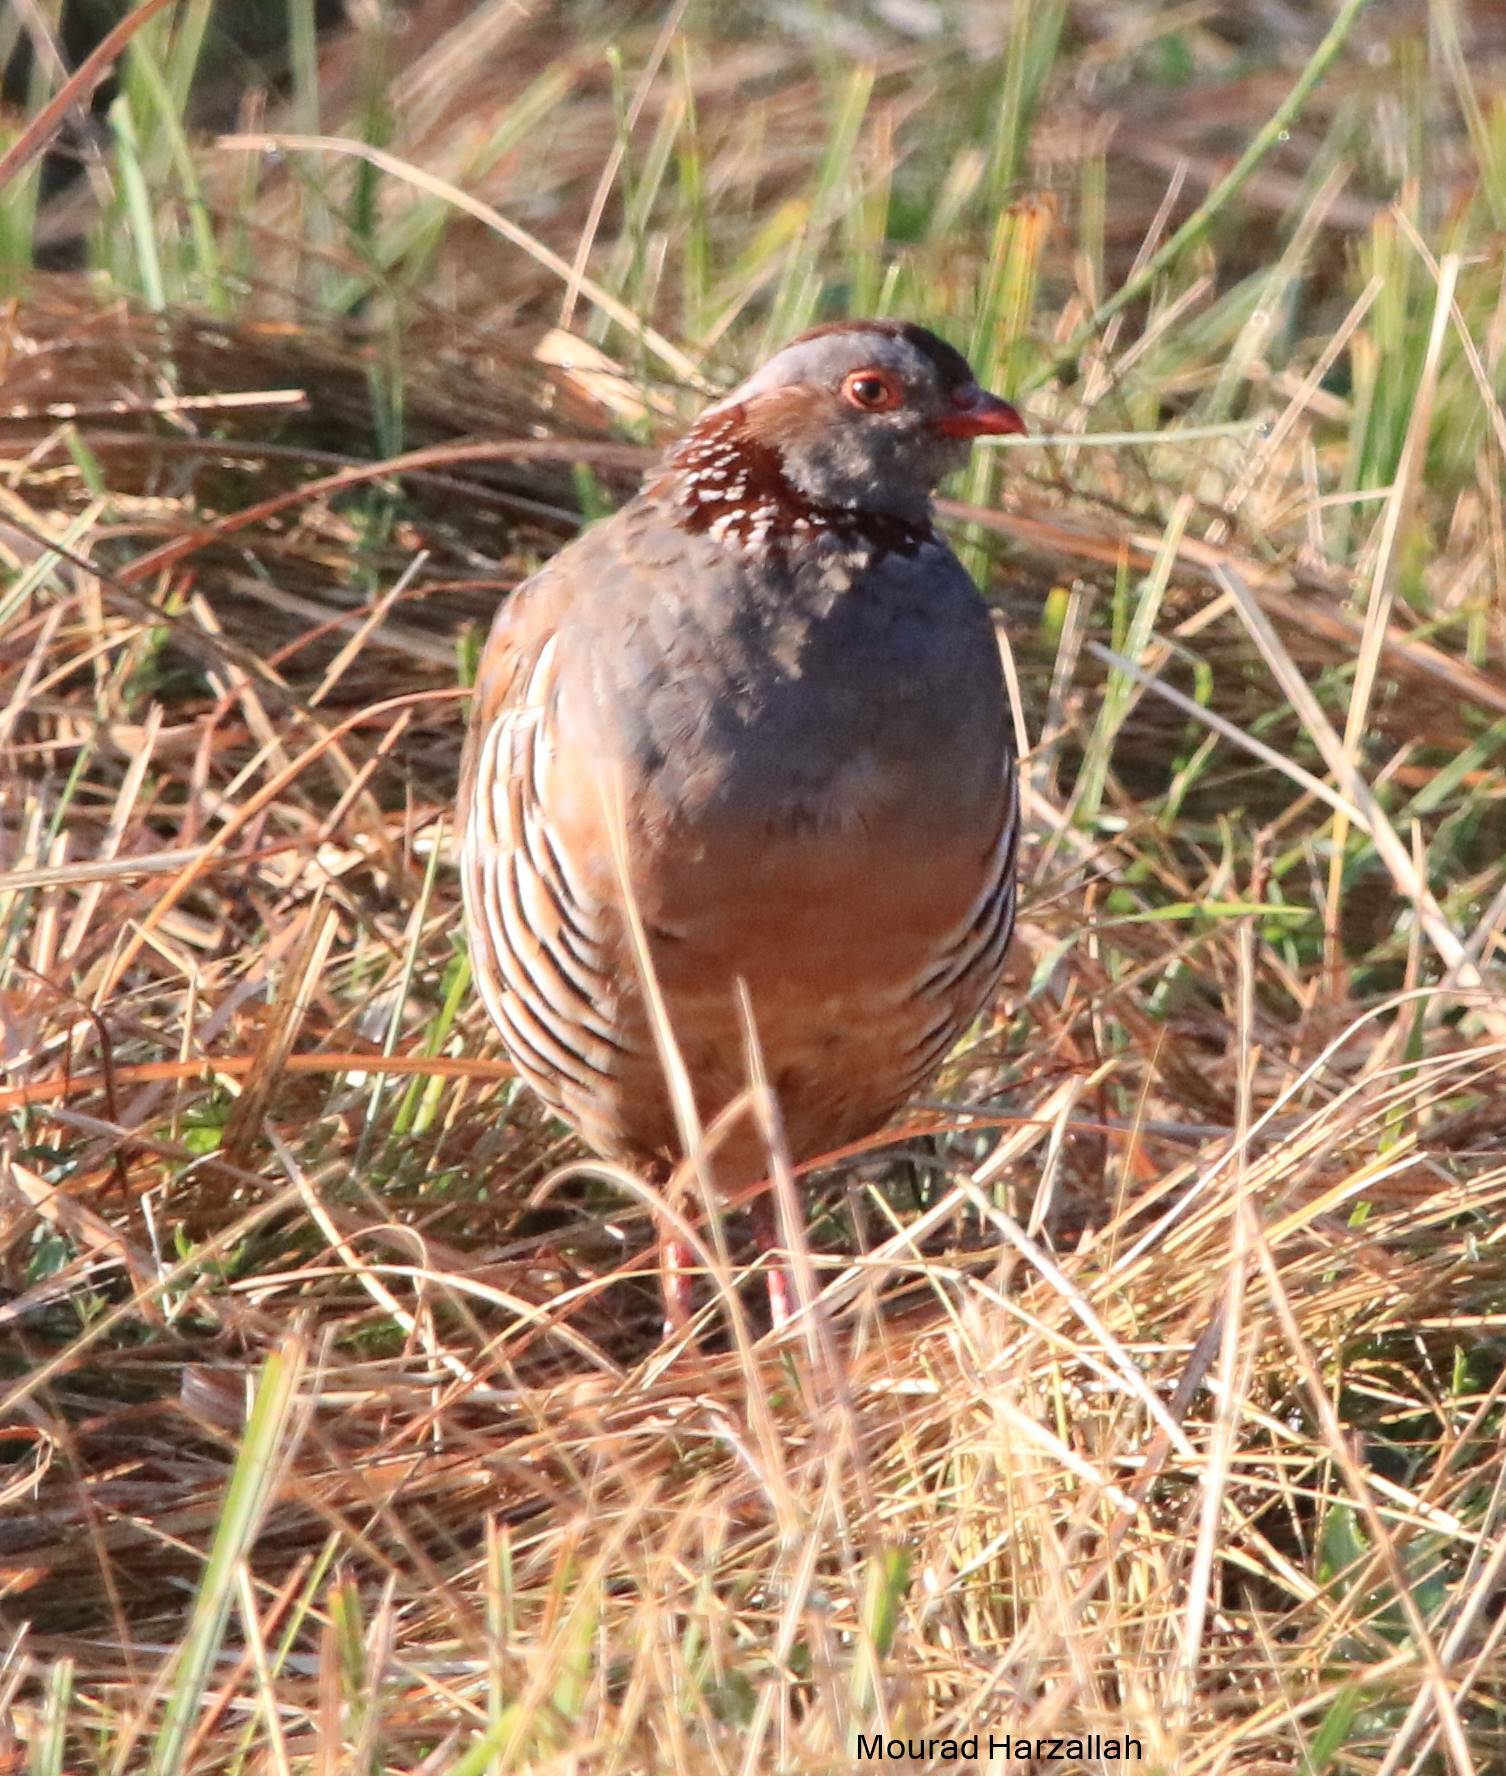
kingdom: Animalia
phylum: Chordata
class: Aves
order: Galliformes
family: Phasianidae
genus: Alectoris
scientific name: Alectoris barbara
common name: Barbary partridge
